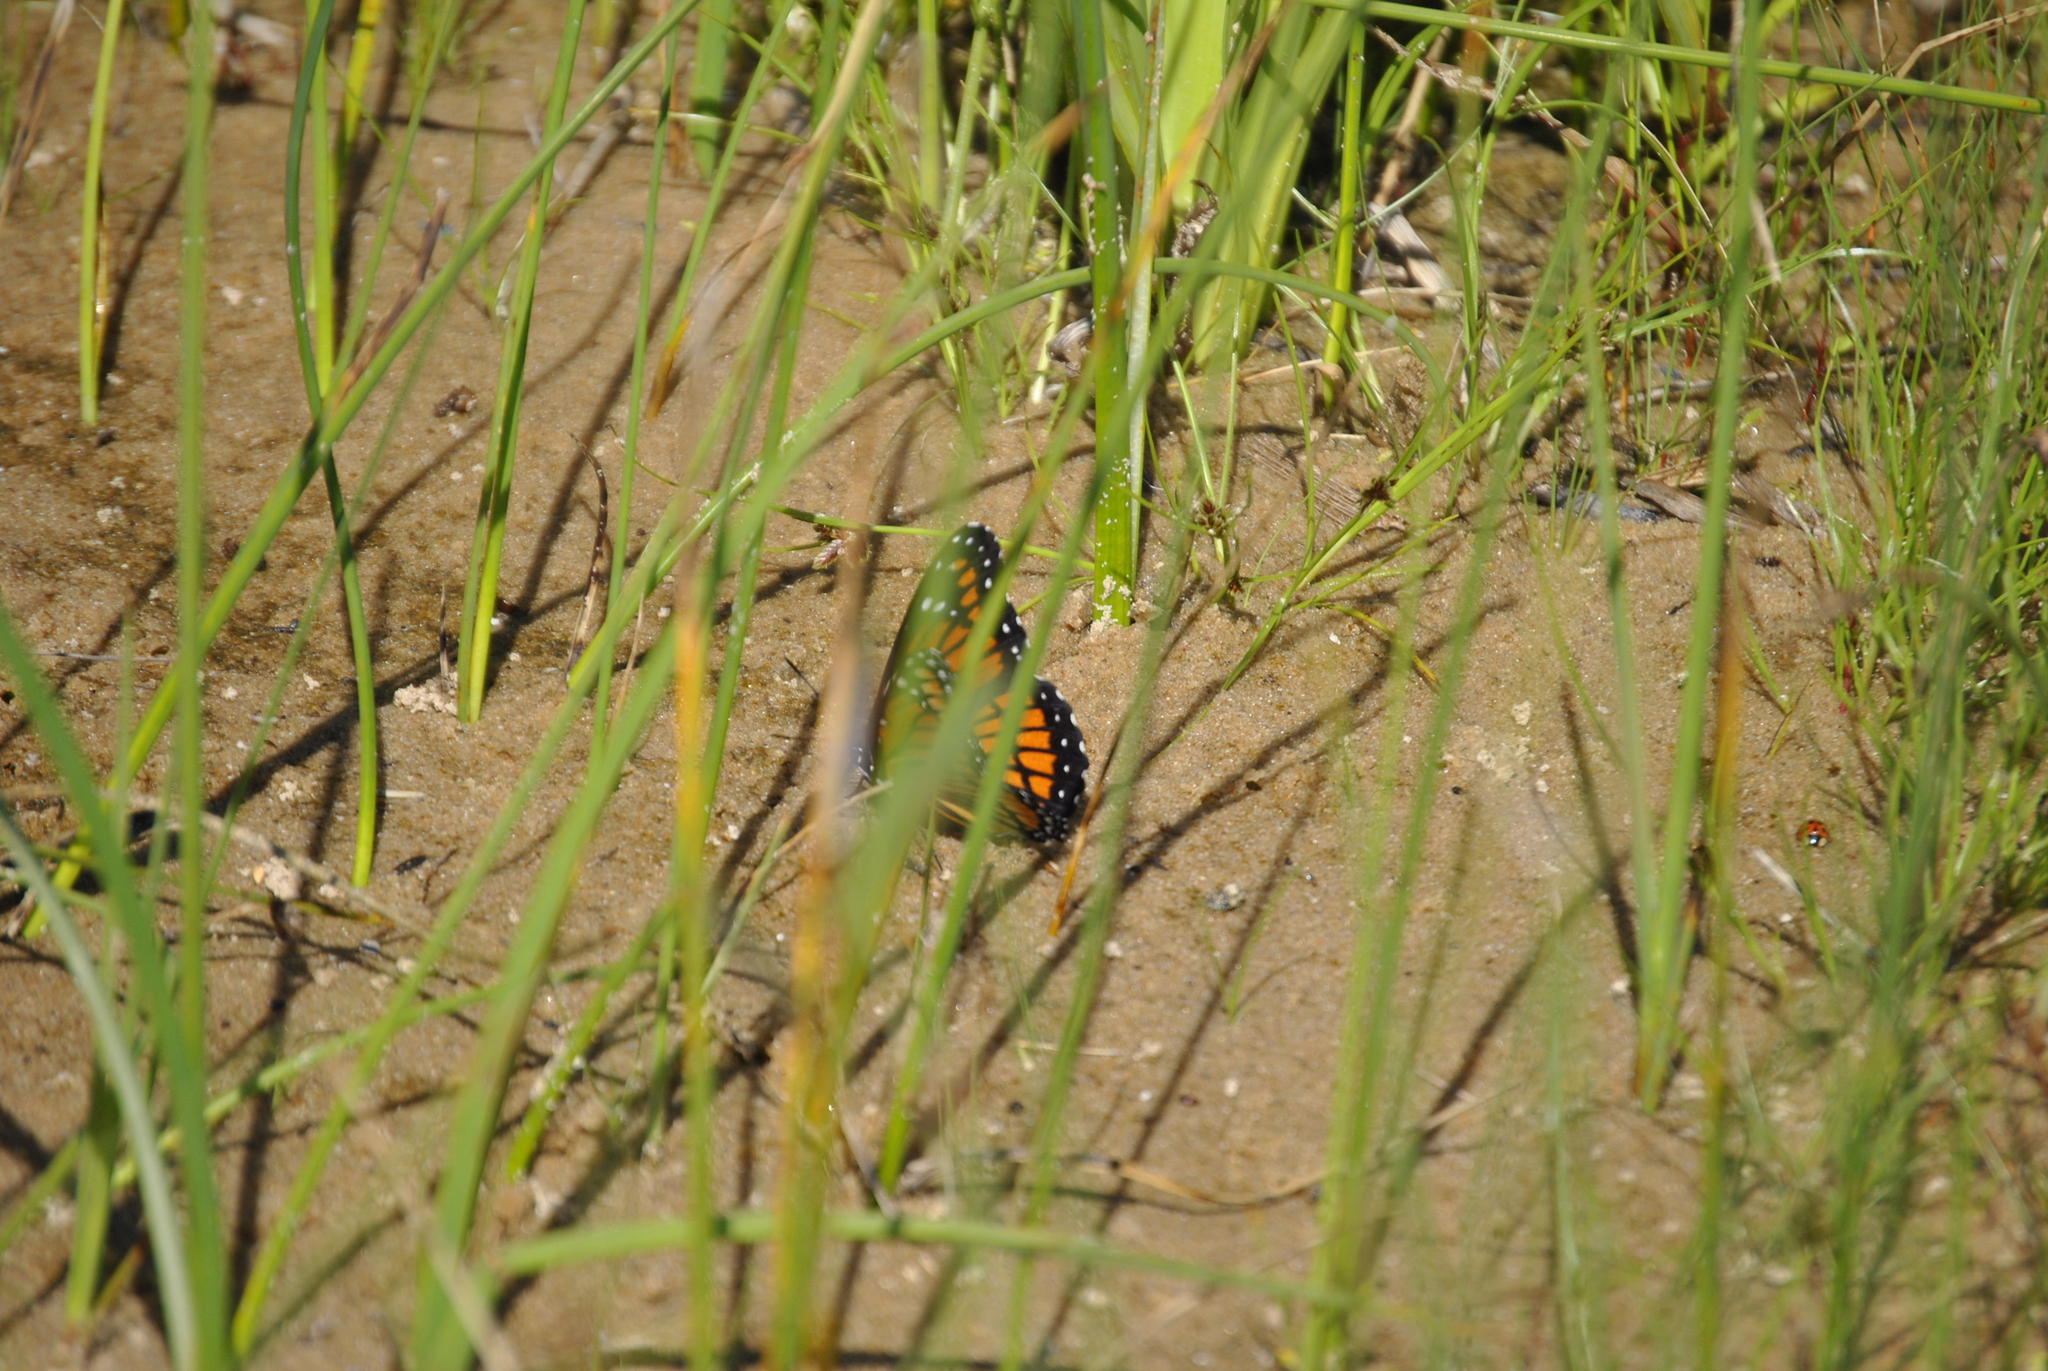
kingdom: Animalia
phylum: Arthropoda
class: Insecta
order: Lepidoptera
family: Nymphalidae
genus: Limenitis
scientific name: Limenitis archippus
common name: Viceroy
